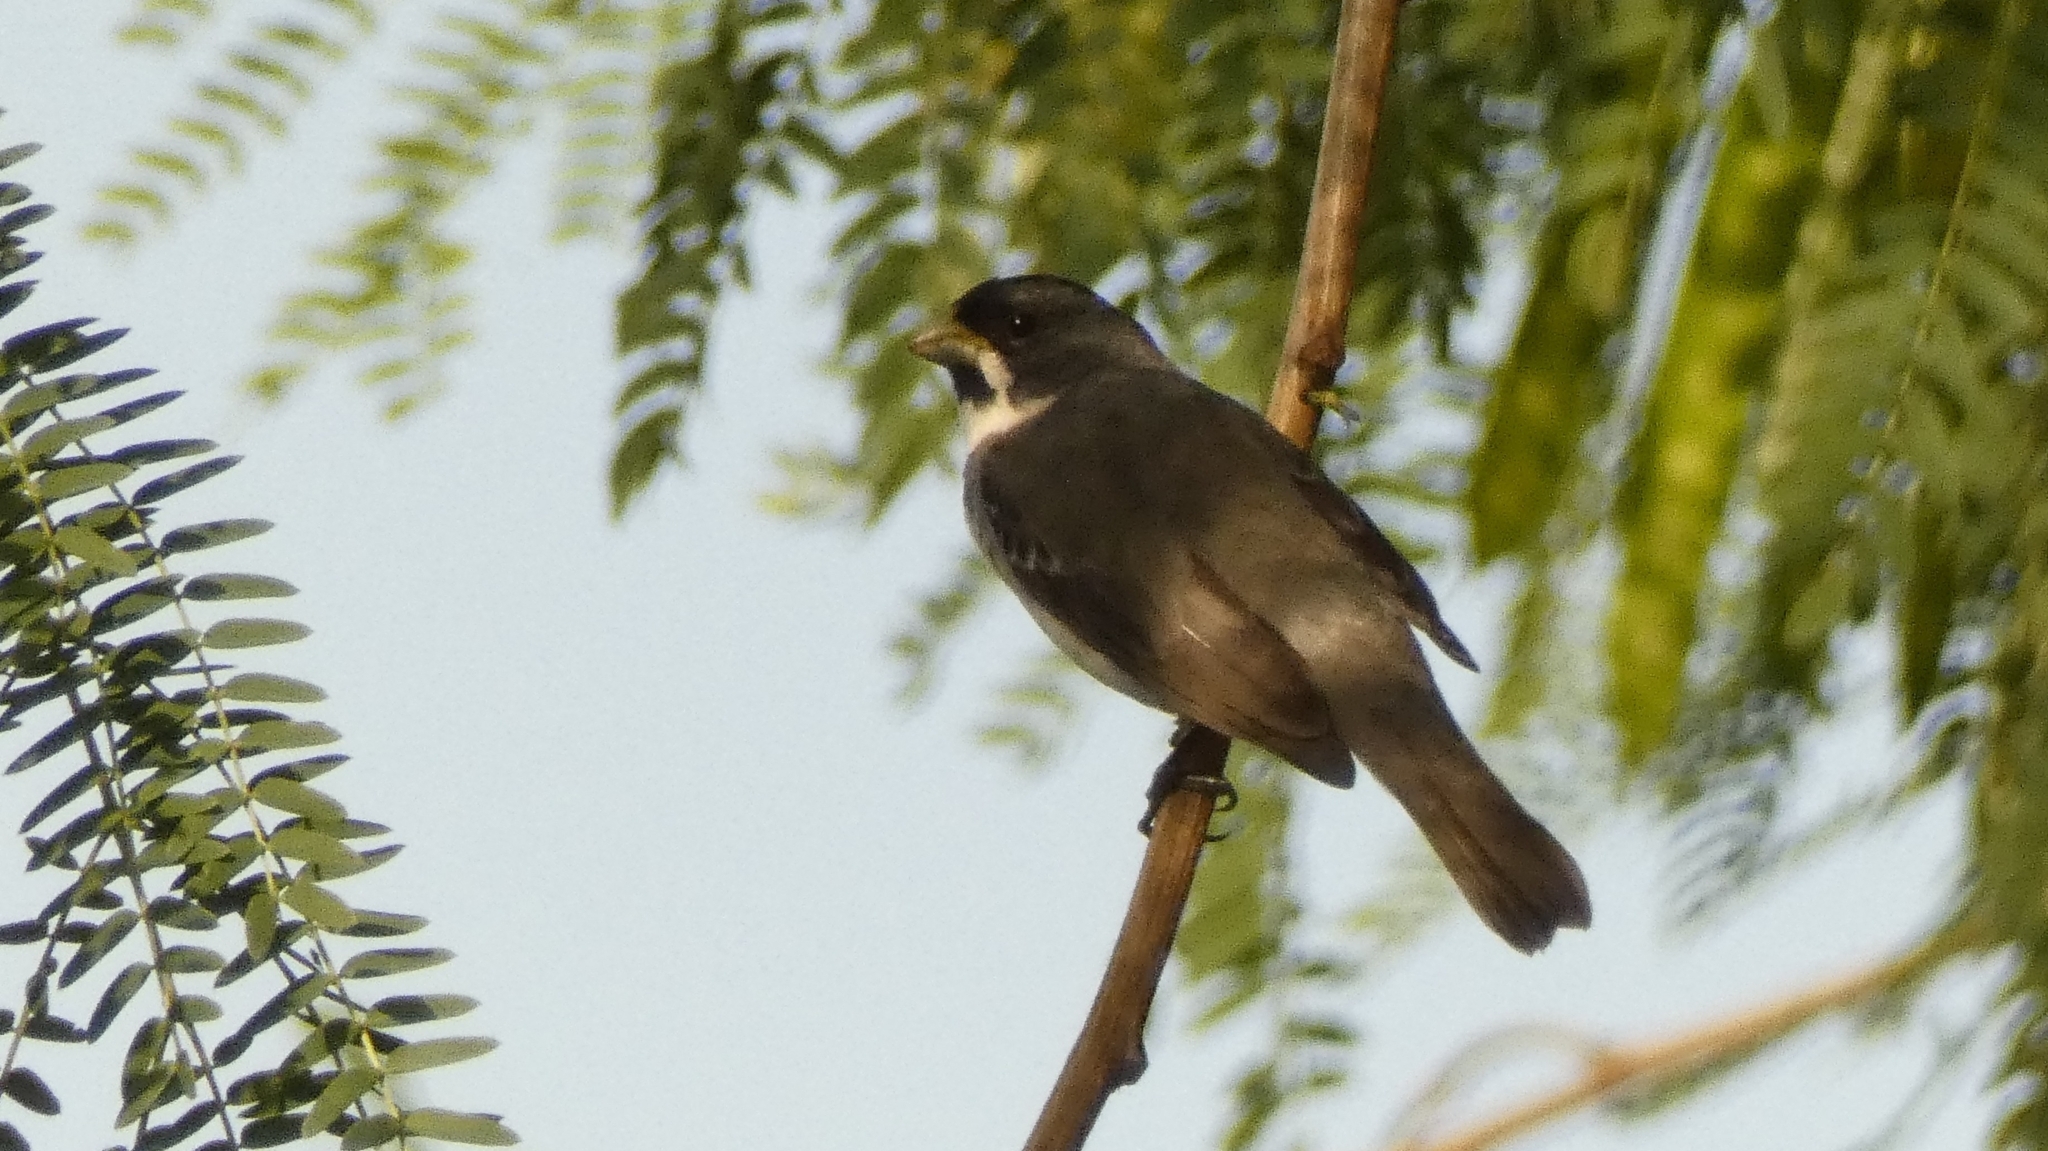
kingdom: Animalia
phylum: Chordata
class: Aves
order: Passeriformes
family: Thraupidae
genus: Sporophila
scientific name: Sporophila caerulescens
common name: Double-collared seedeater
